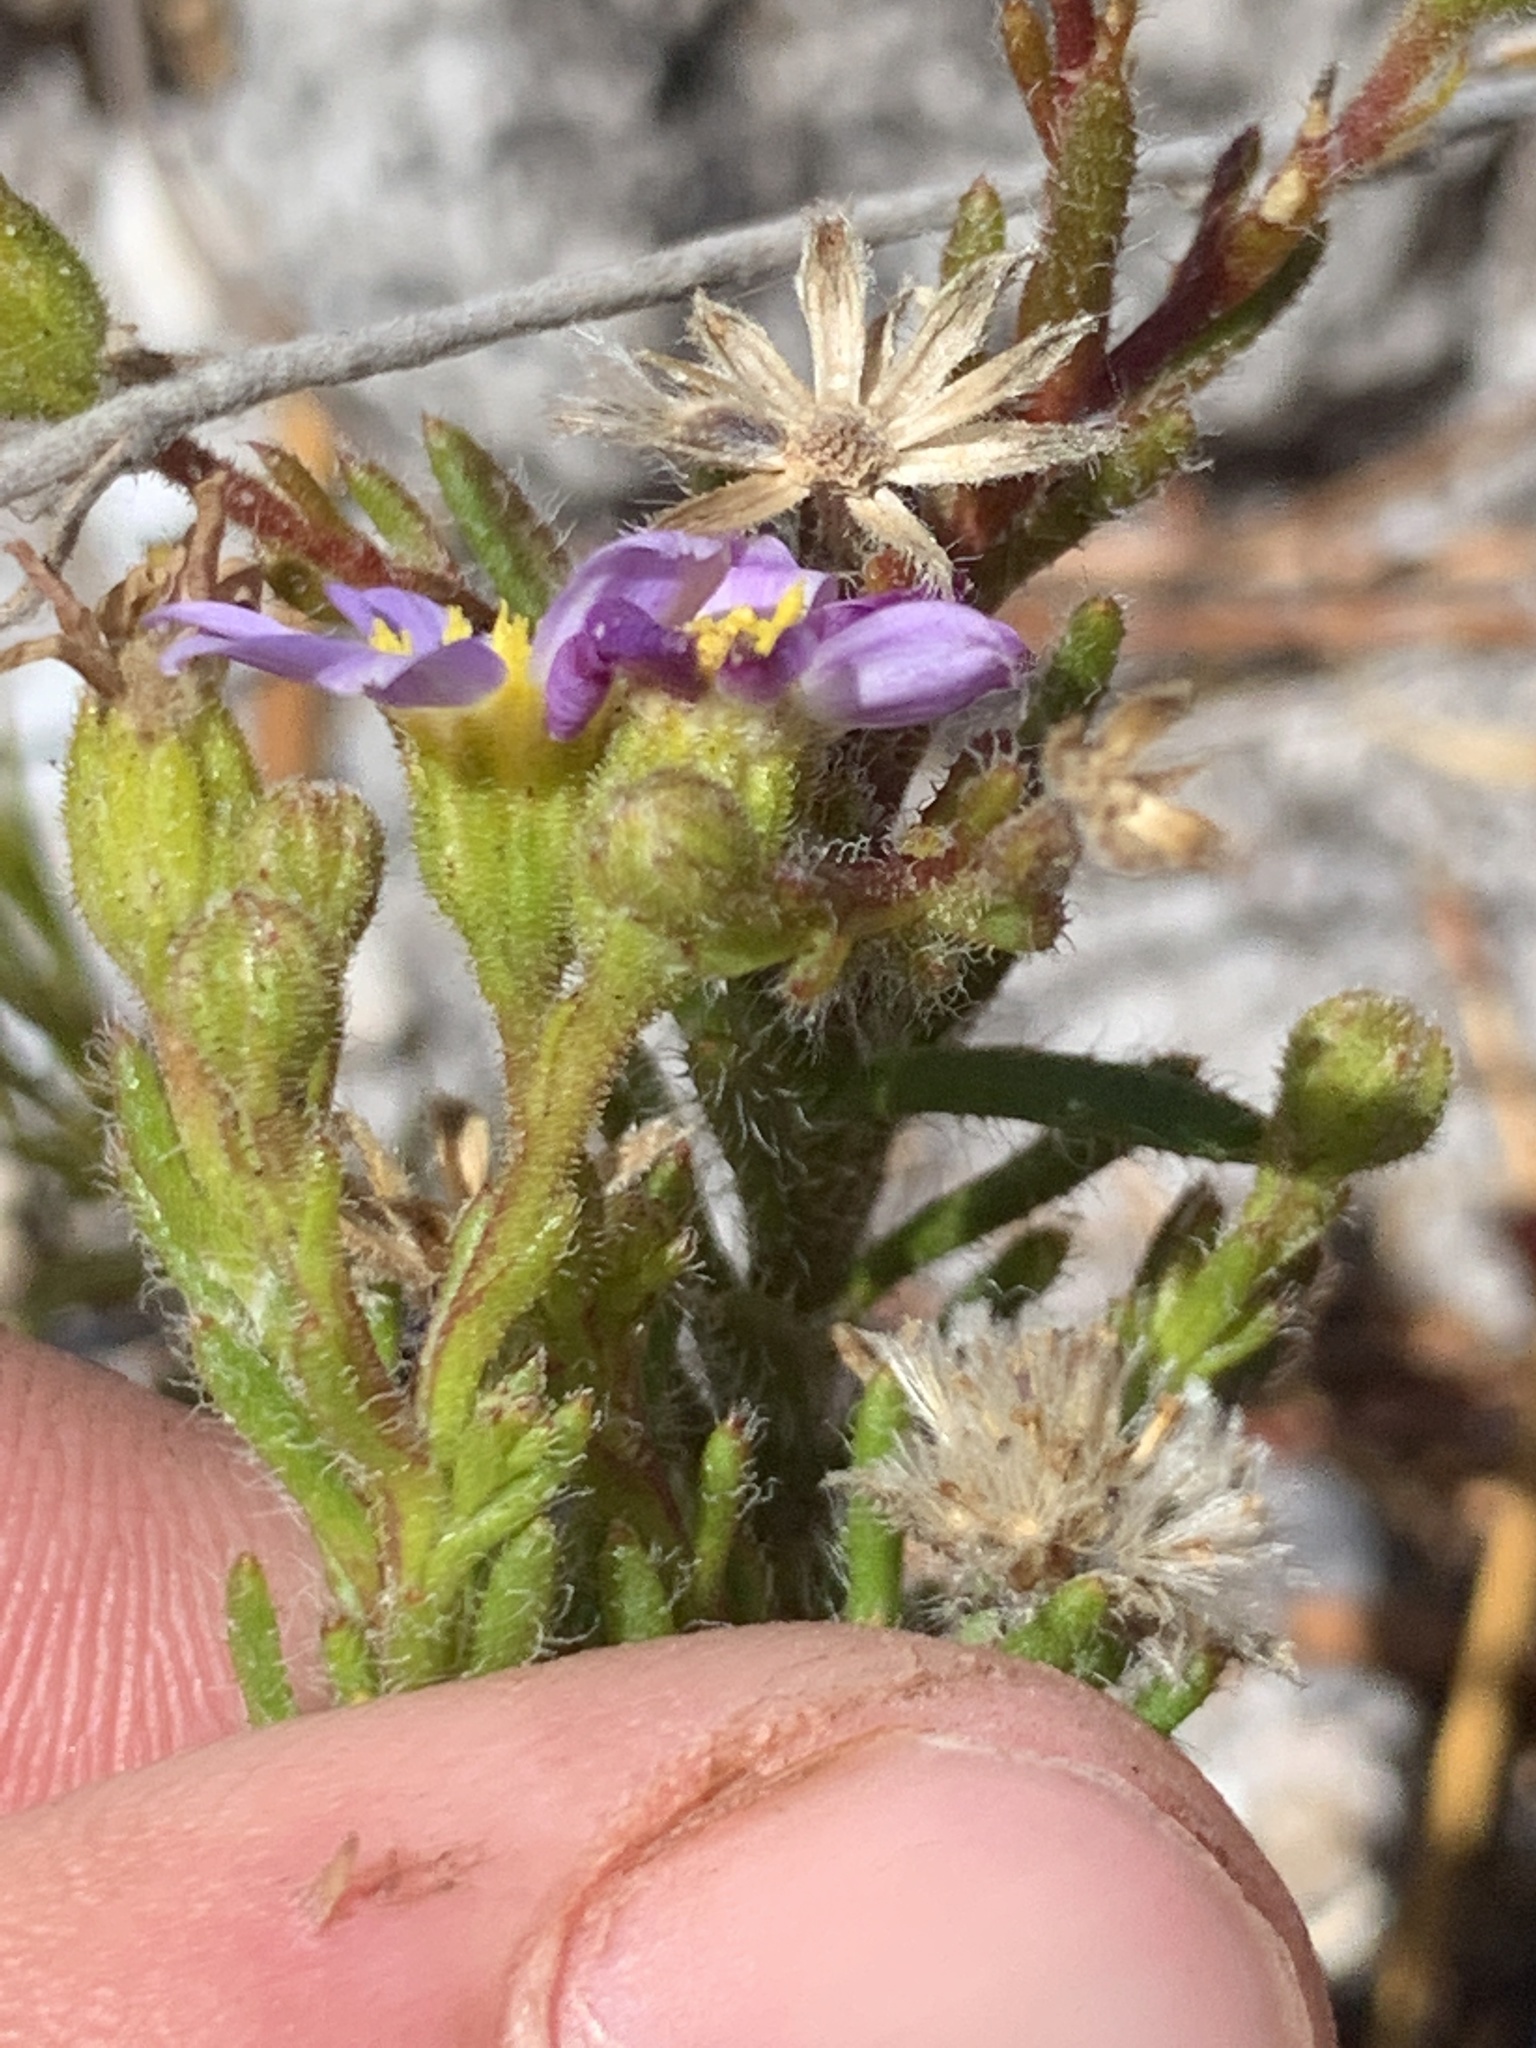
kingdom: Plantae
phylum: Tracheophyta
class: Magnoliopsida
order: Asterales
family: Asteraceae
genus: Zyrphelis
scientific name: Zyrphelis foliosa
